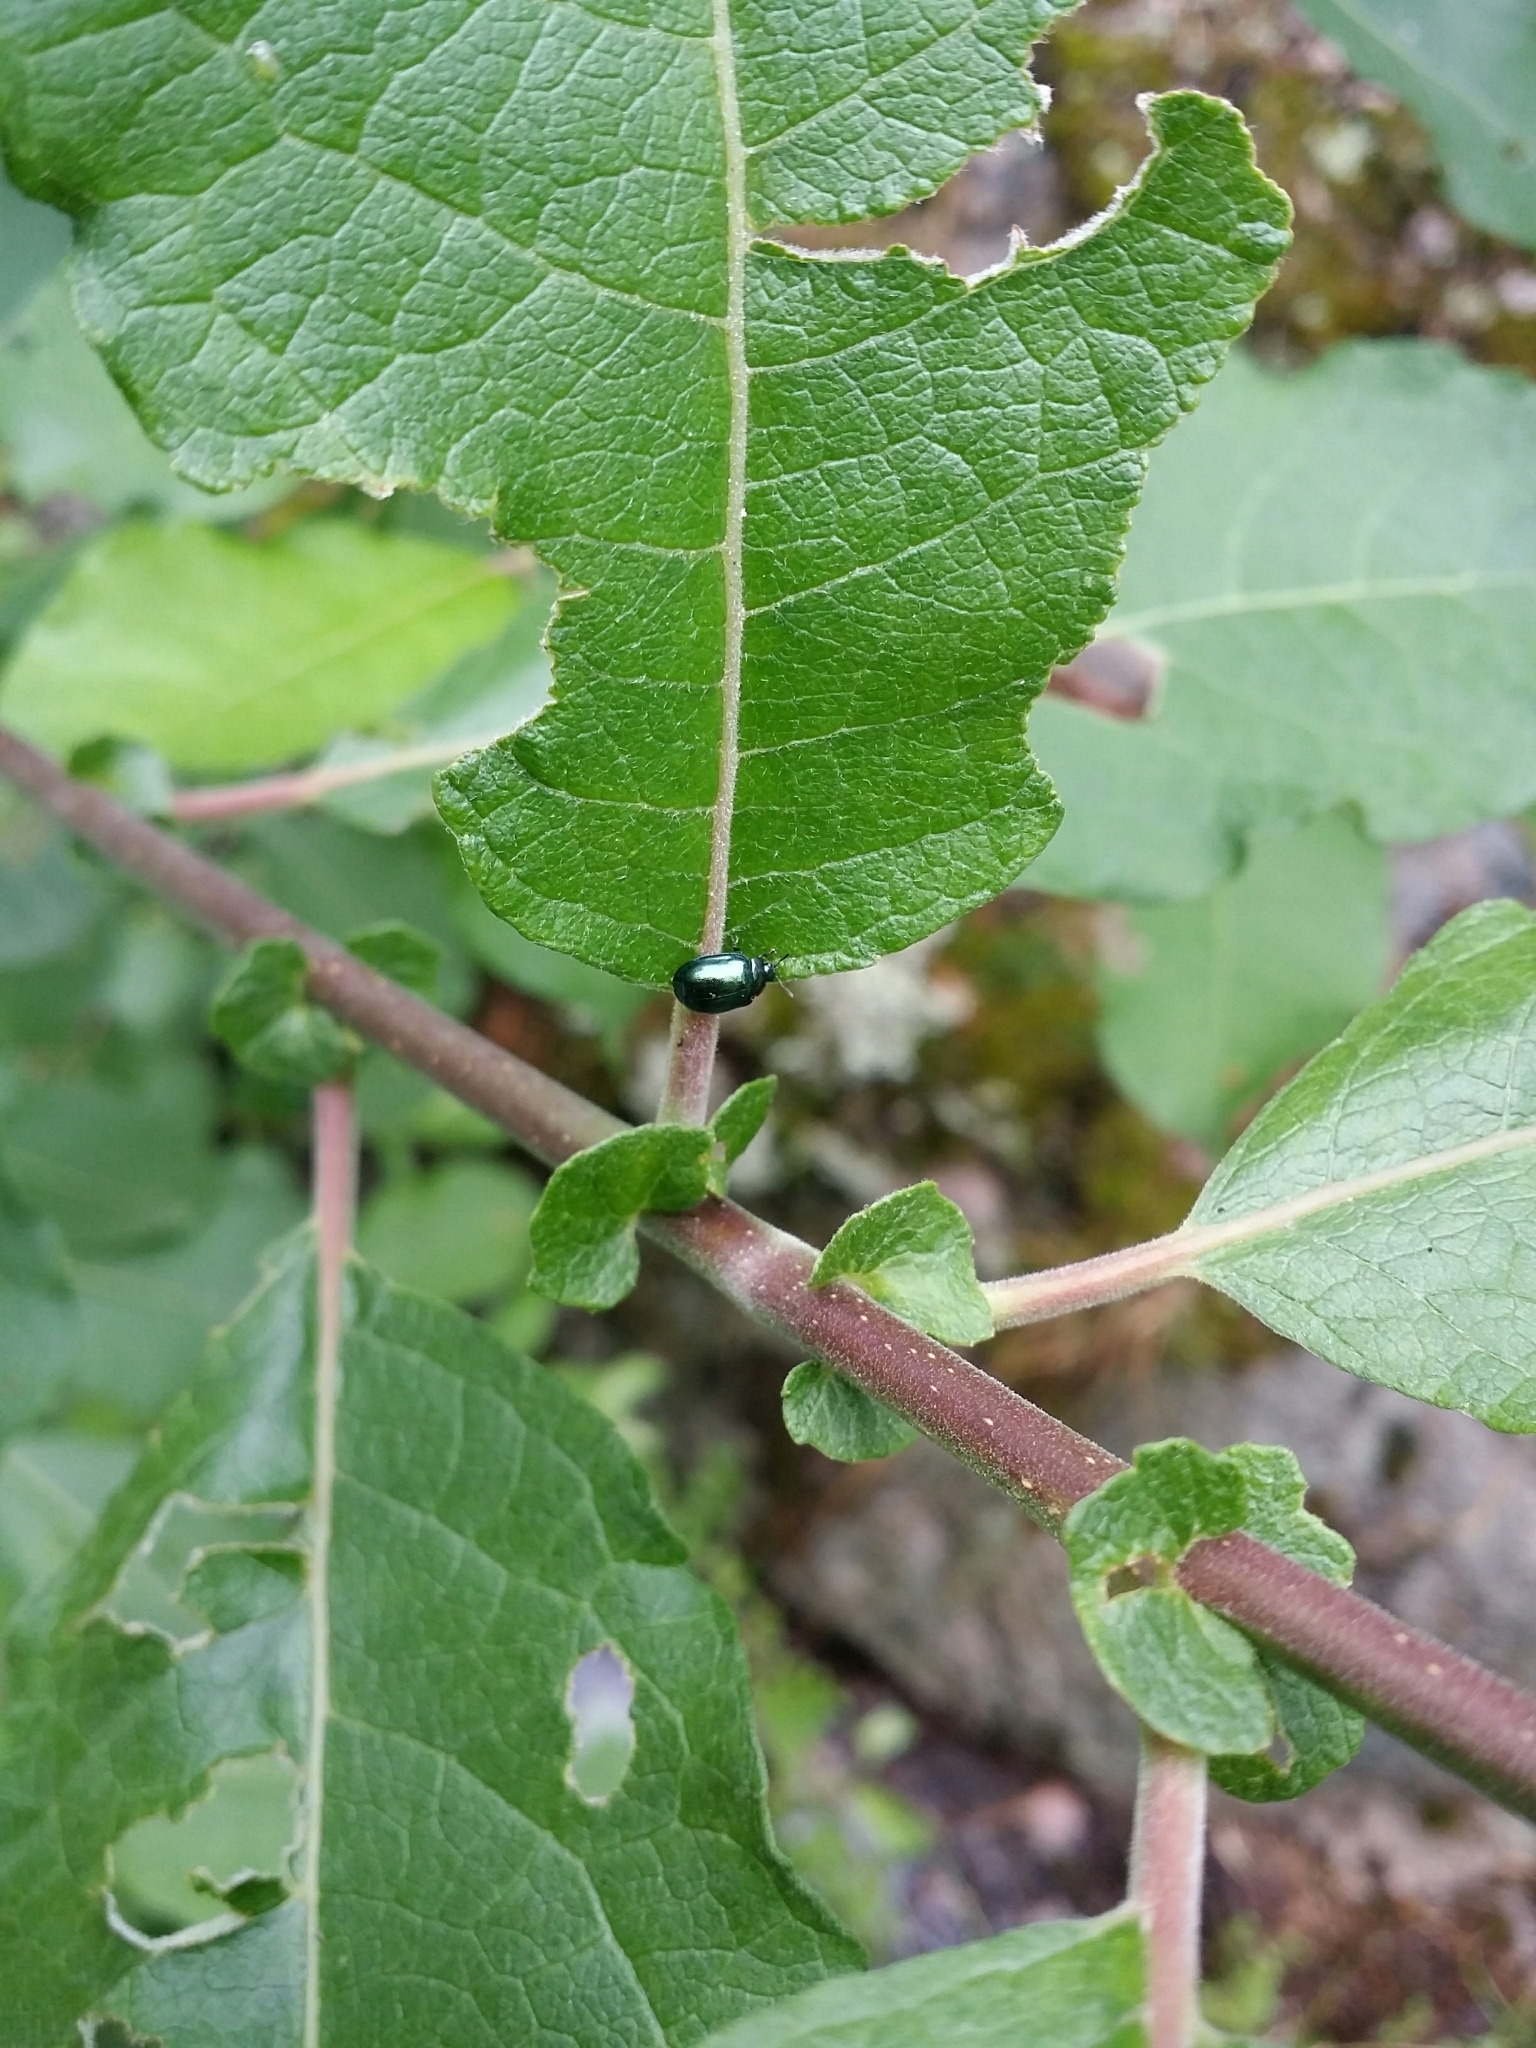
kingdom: Animalia
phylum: Arthropoda
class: Insecta
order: Coleoptera
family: Chrysomelidae
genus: Plagiodera
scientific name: Plagiodera versicolora
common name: Imported willow leaf beetle
